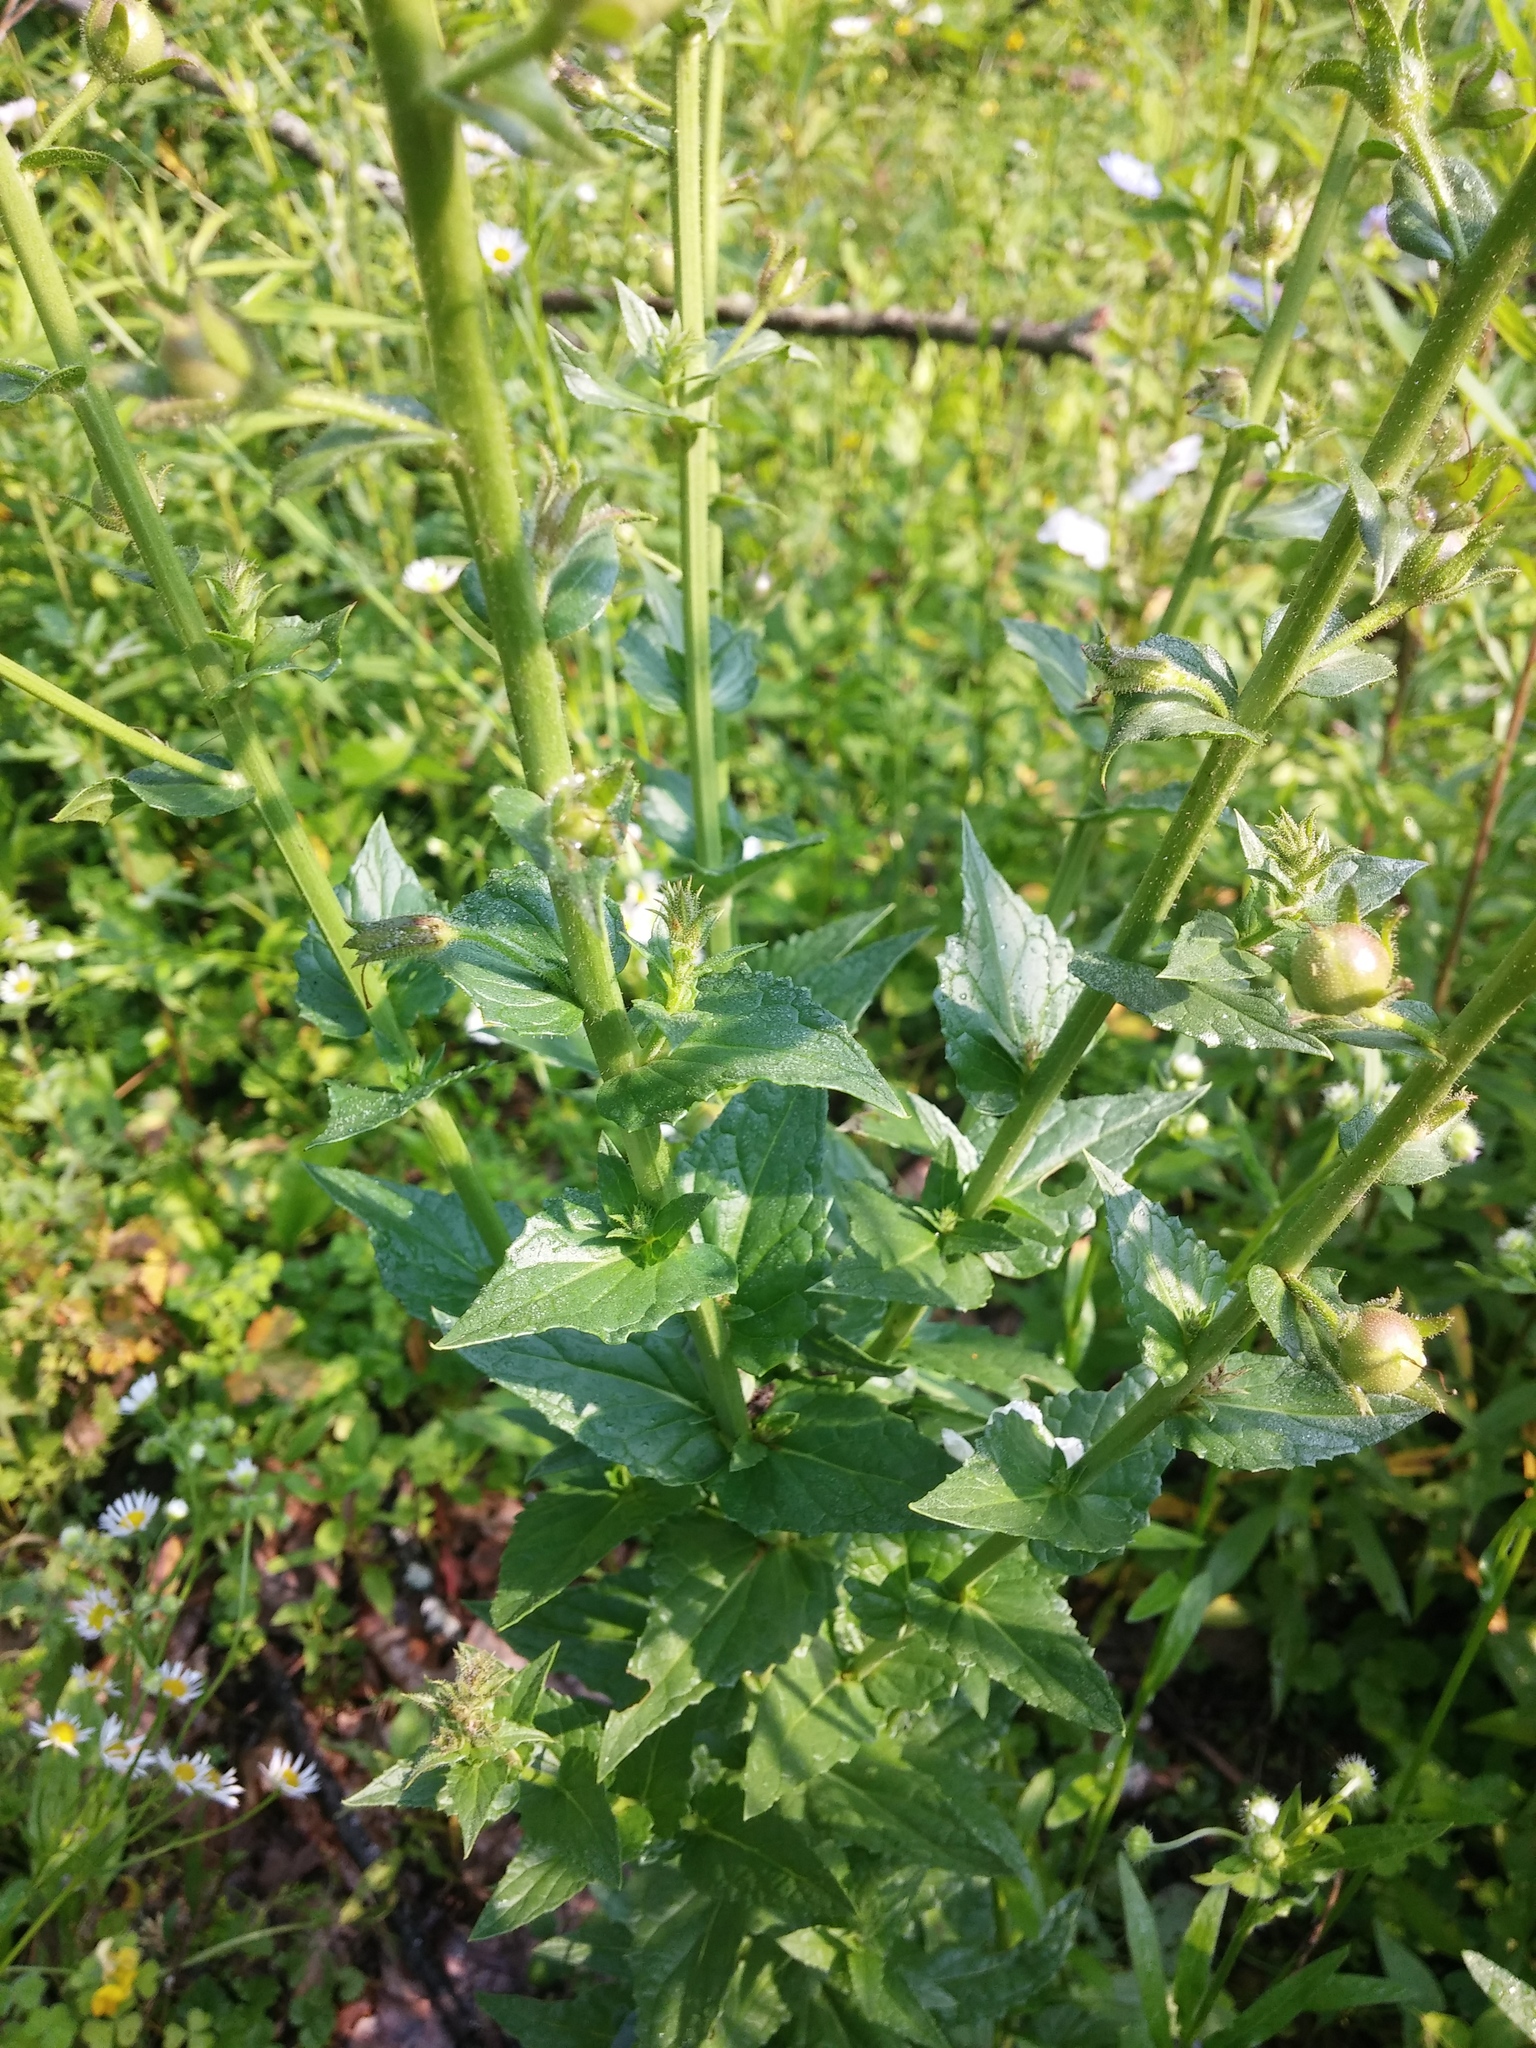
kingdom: Plantae
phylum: Tracheophyta
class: Magnoliopsida
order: Lamiales
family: Scrophulariaceae
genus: Verbascum
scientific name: Verbascum blattaria
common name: Moth mullein
